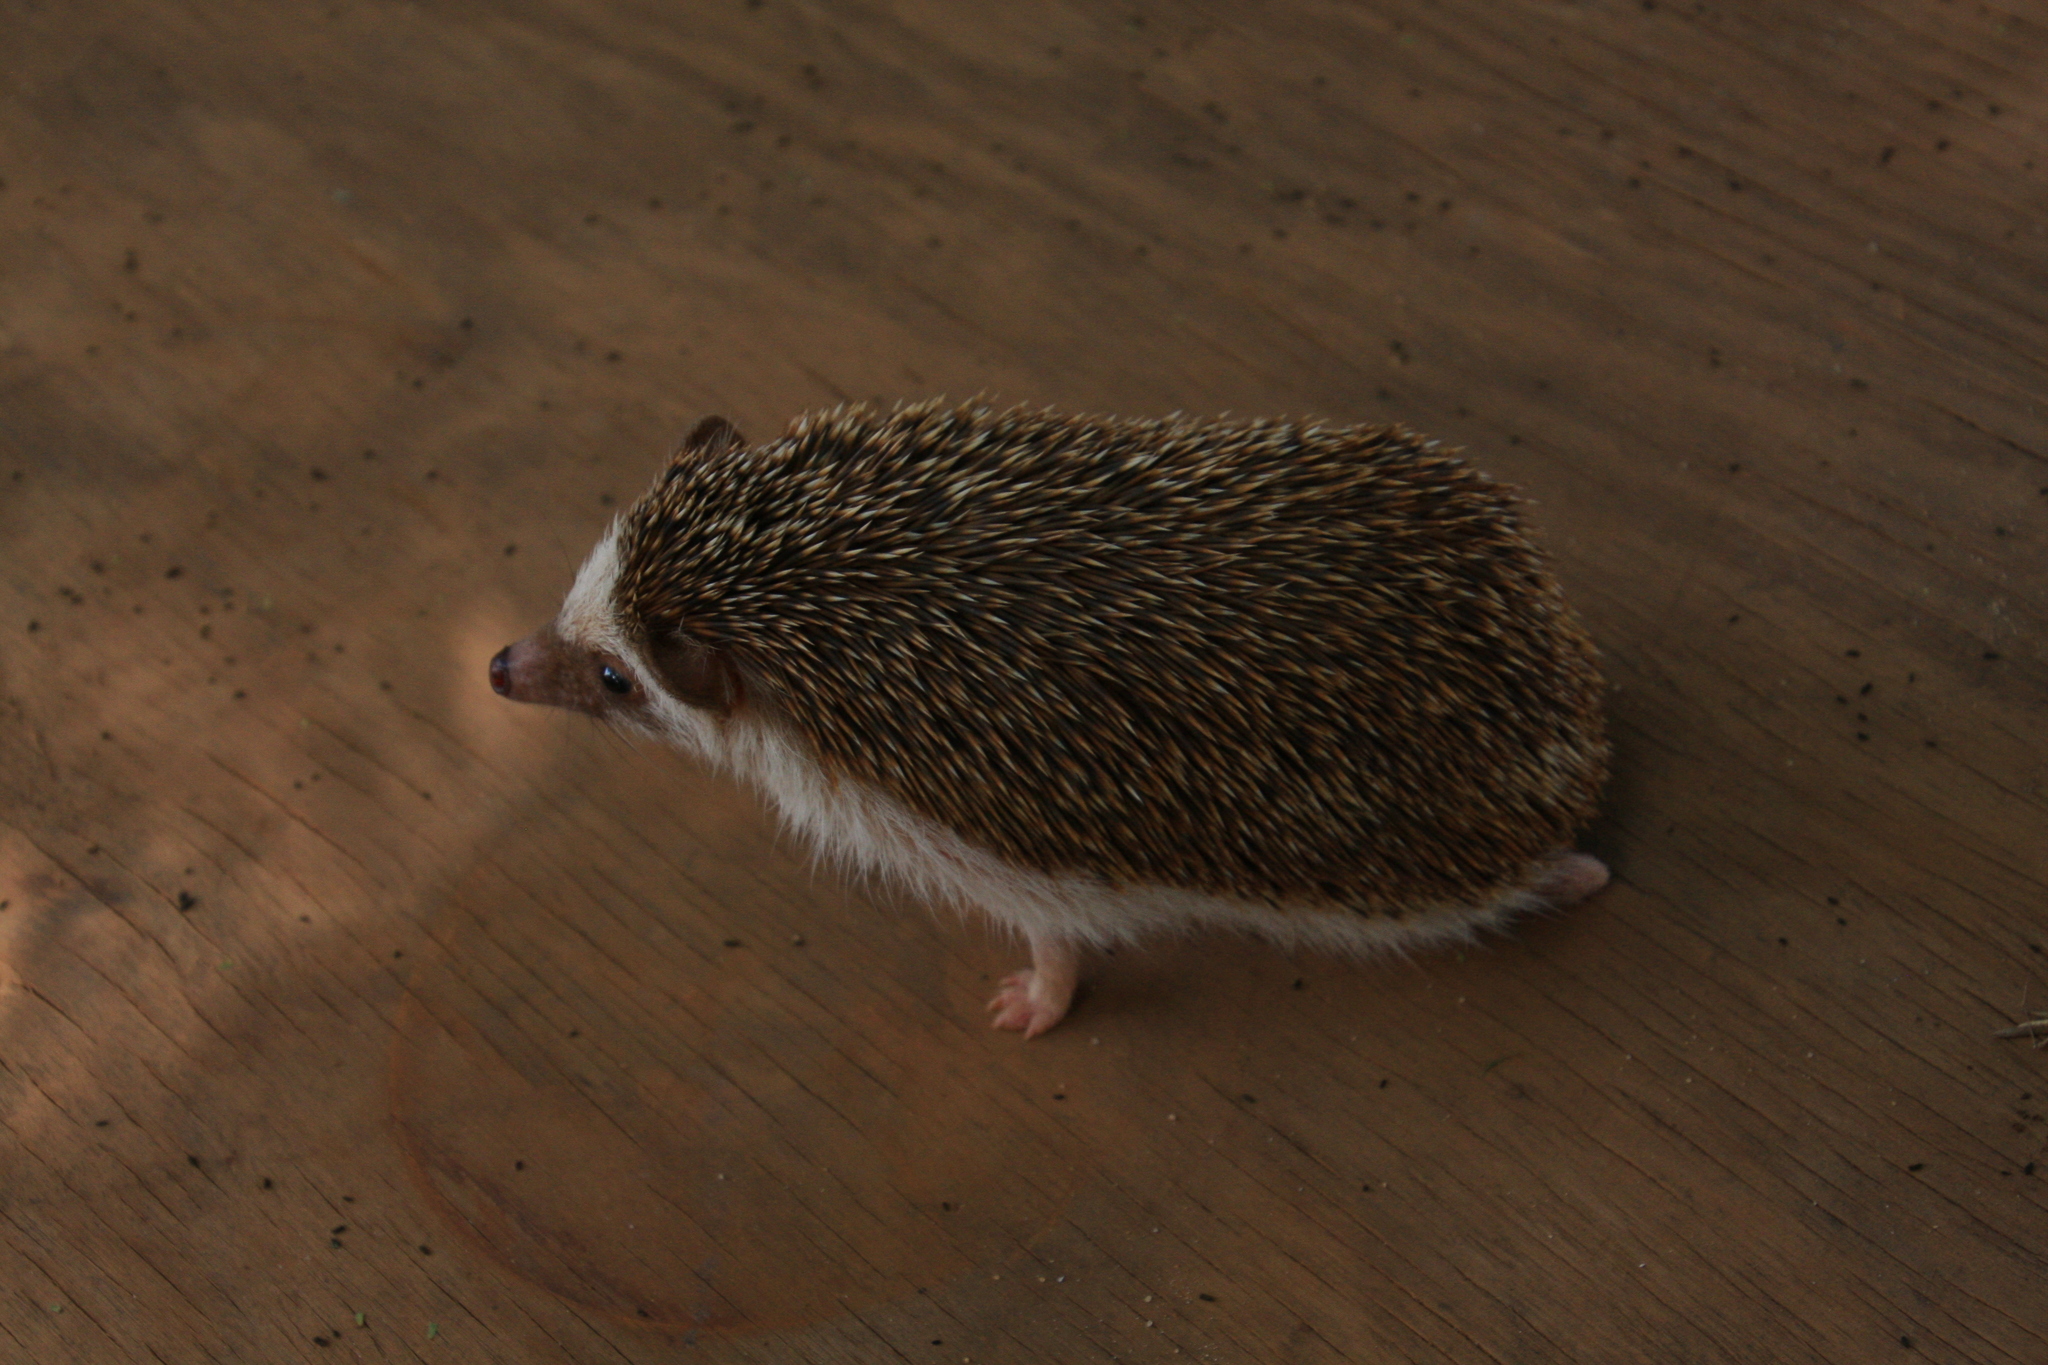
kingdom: Animalia
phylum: Chordata
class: Mammalia
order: Erinaceomorpha
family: Erinaceidae
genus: Atelerix
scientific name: Atelerix albiventris
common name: Four-toed hedgehog
